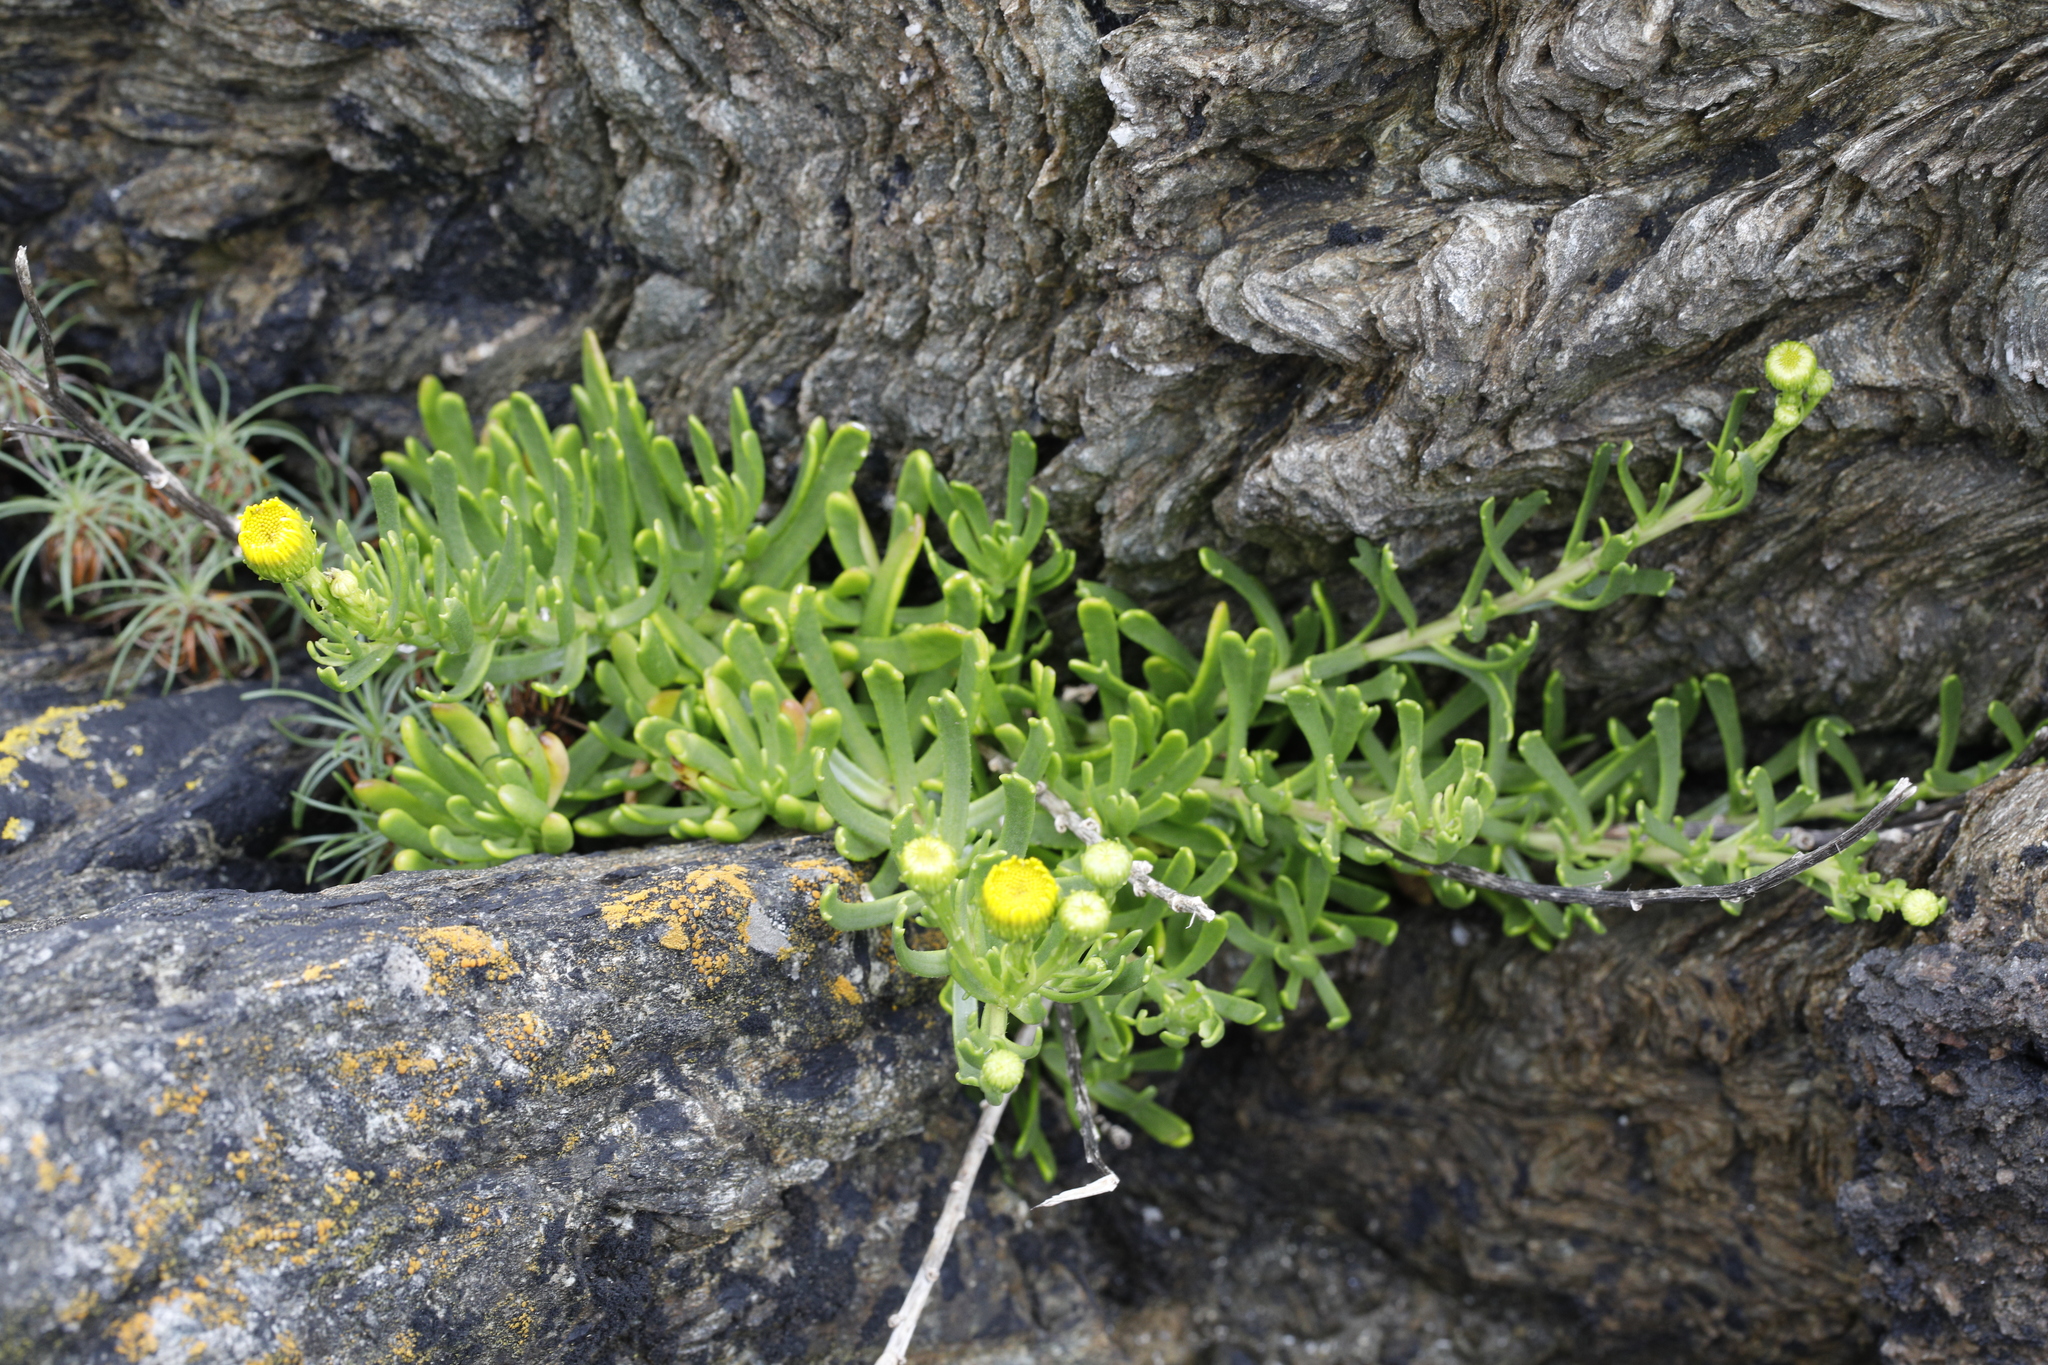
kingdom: Plantae
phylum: Tracheophyta
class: Magnoliopsida
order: Asterales
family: Asteraceae
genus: Limbarda
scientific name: Limbarda crithmoides
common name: Golden samphire
